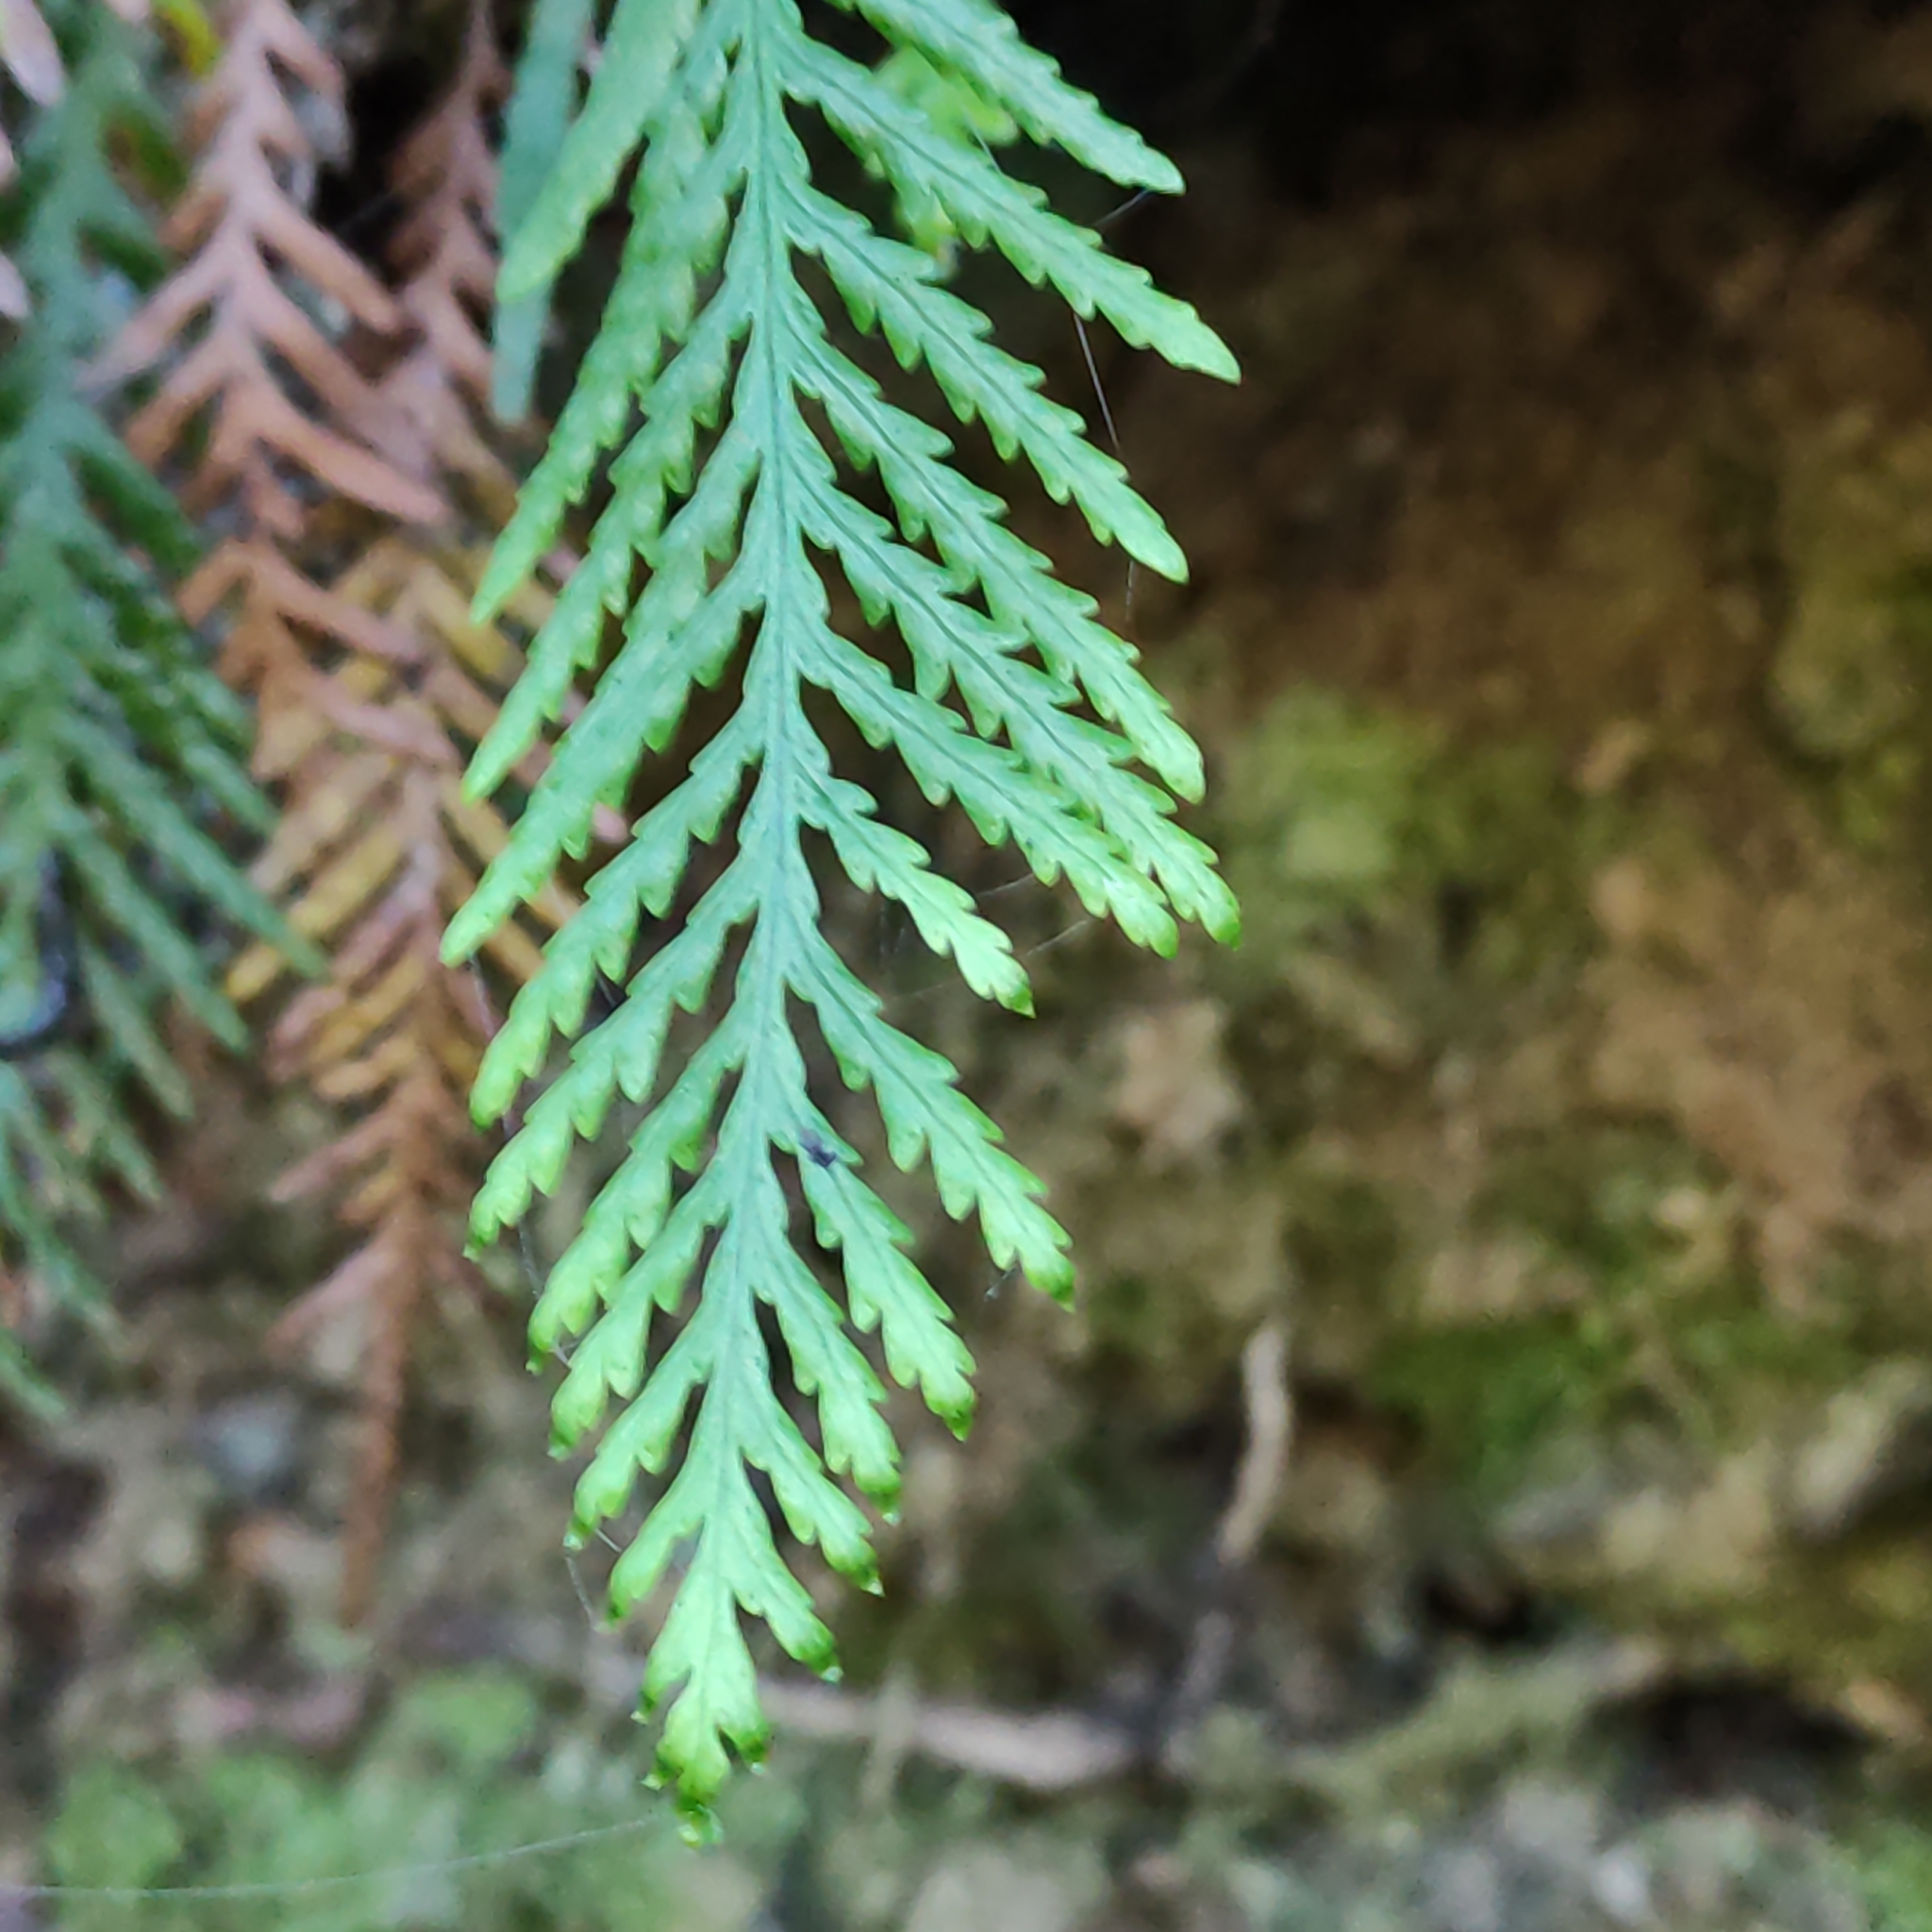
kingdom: Plantae
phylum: Tracheophyta
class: Polypodiopsida
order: Polypodiales
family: Polypodiaceae
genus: Notogrammitis
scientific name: Notogrammitis heterophylla
